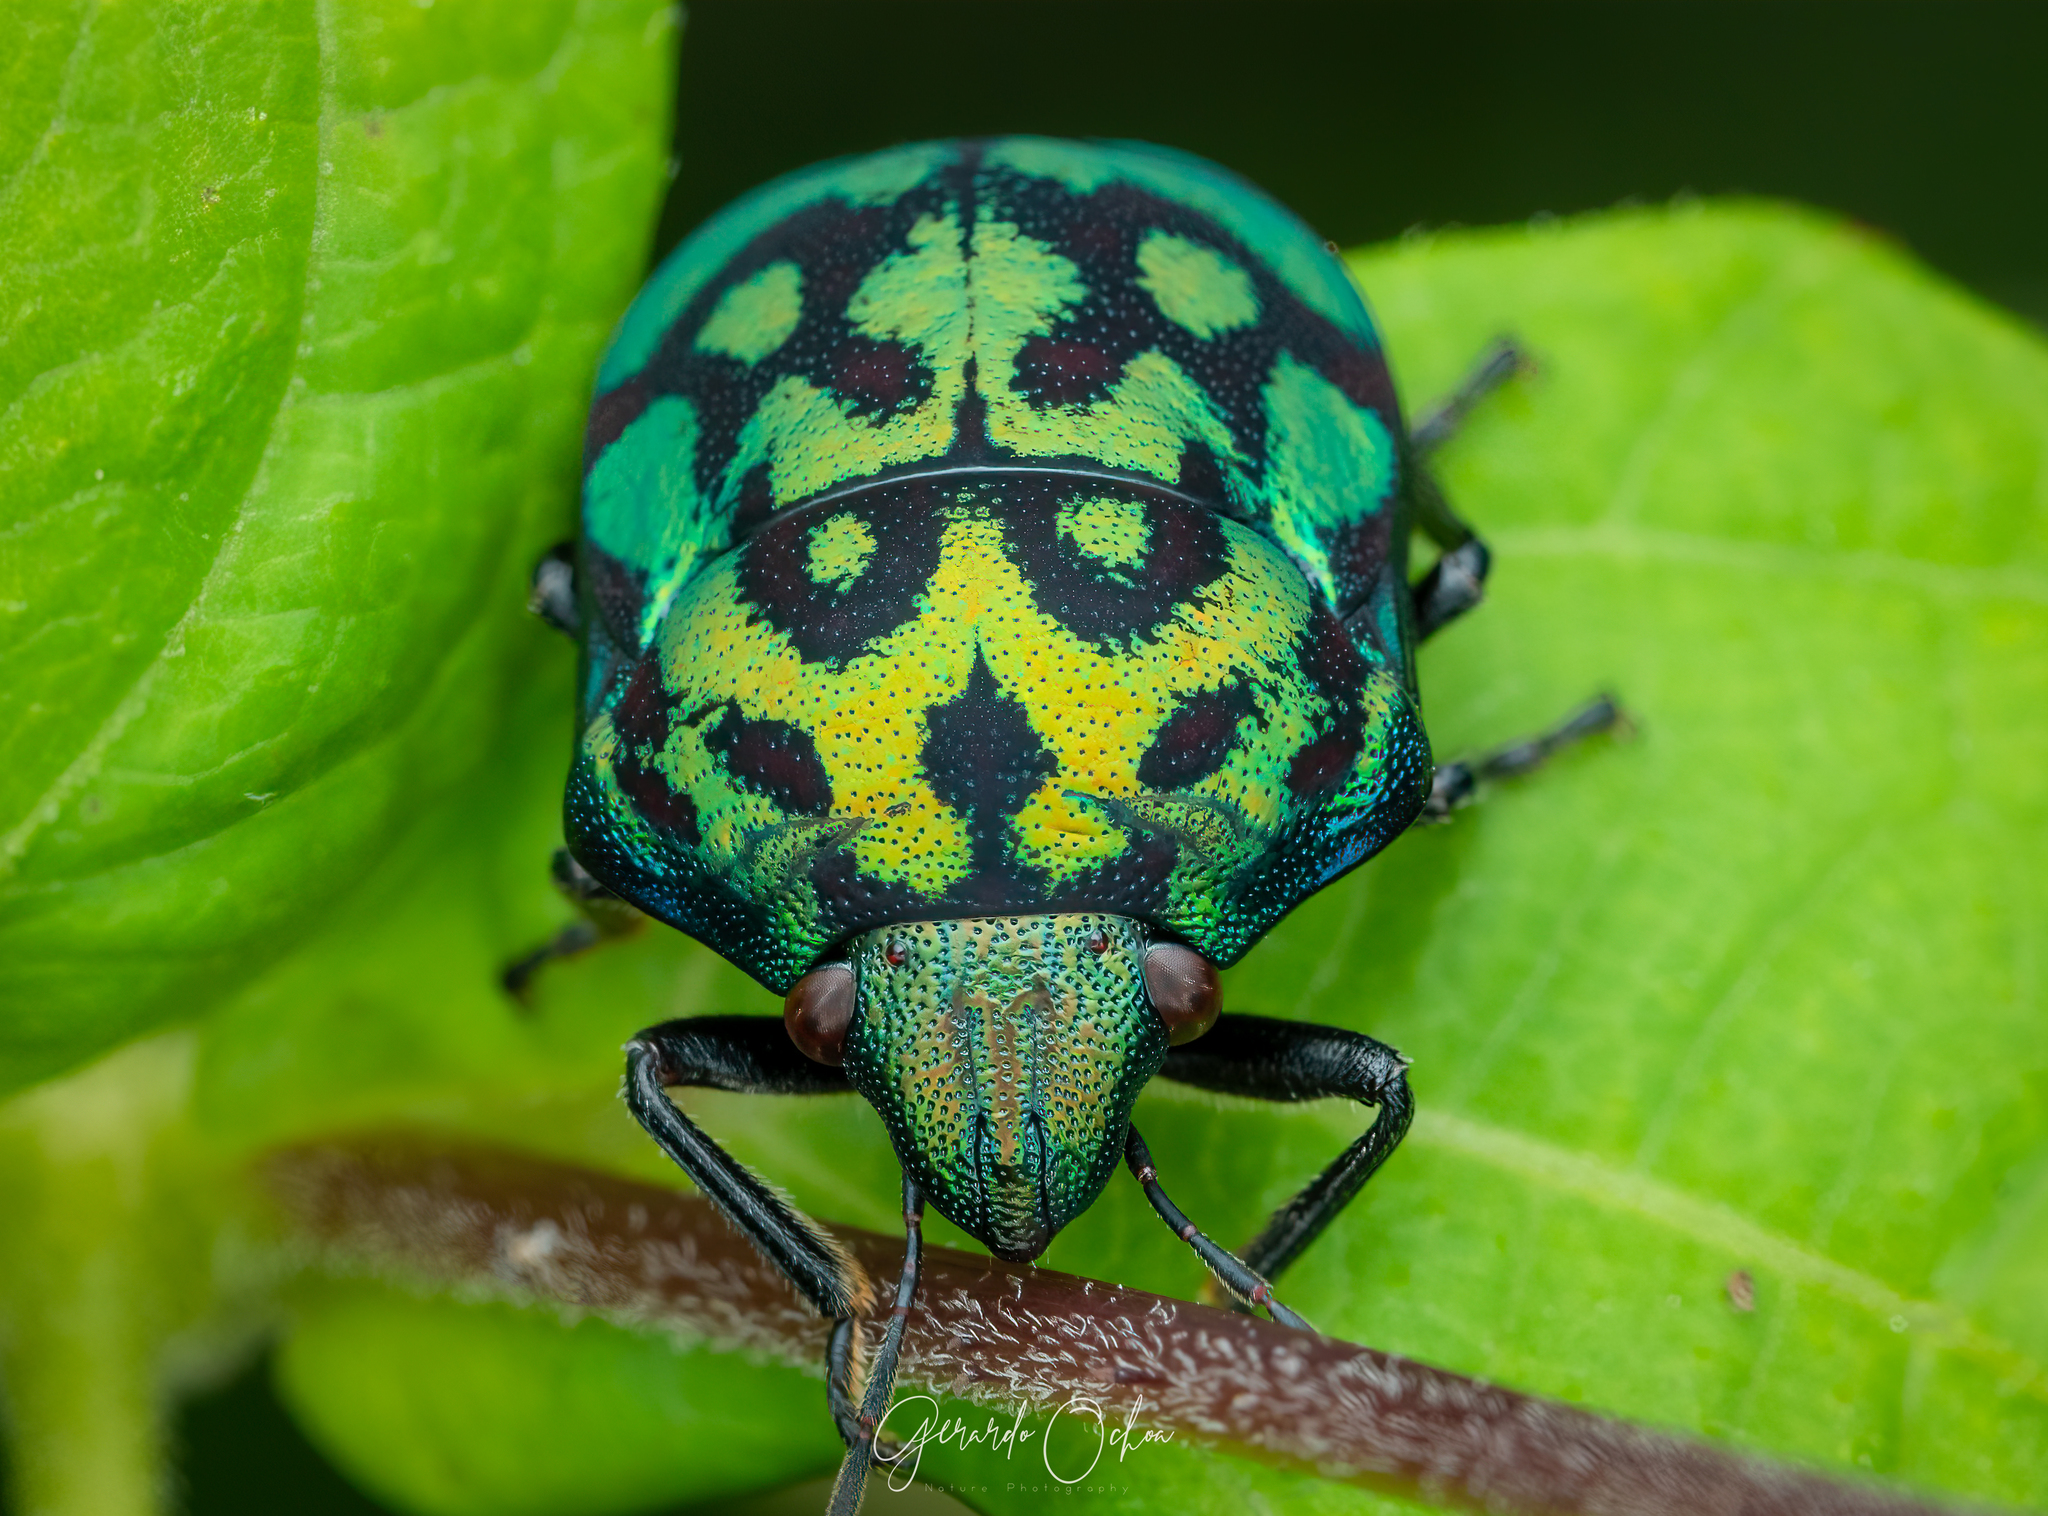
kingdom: Animalia
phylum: Arthropoda
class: Insecta
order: Hemiptera
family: Scutelleridae
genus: Orsilochides
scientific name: Orsilochides variabilis
